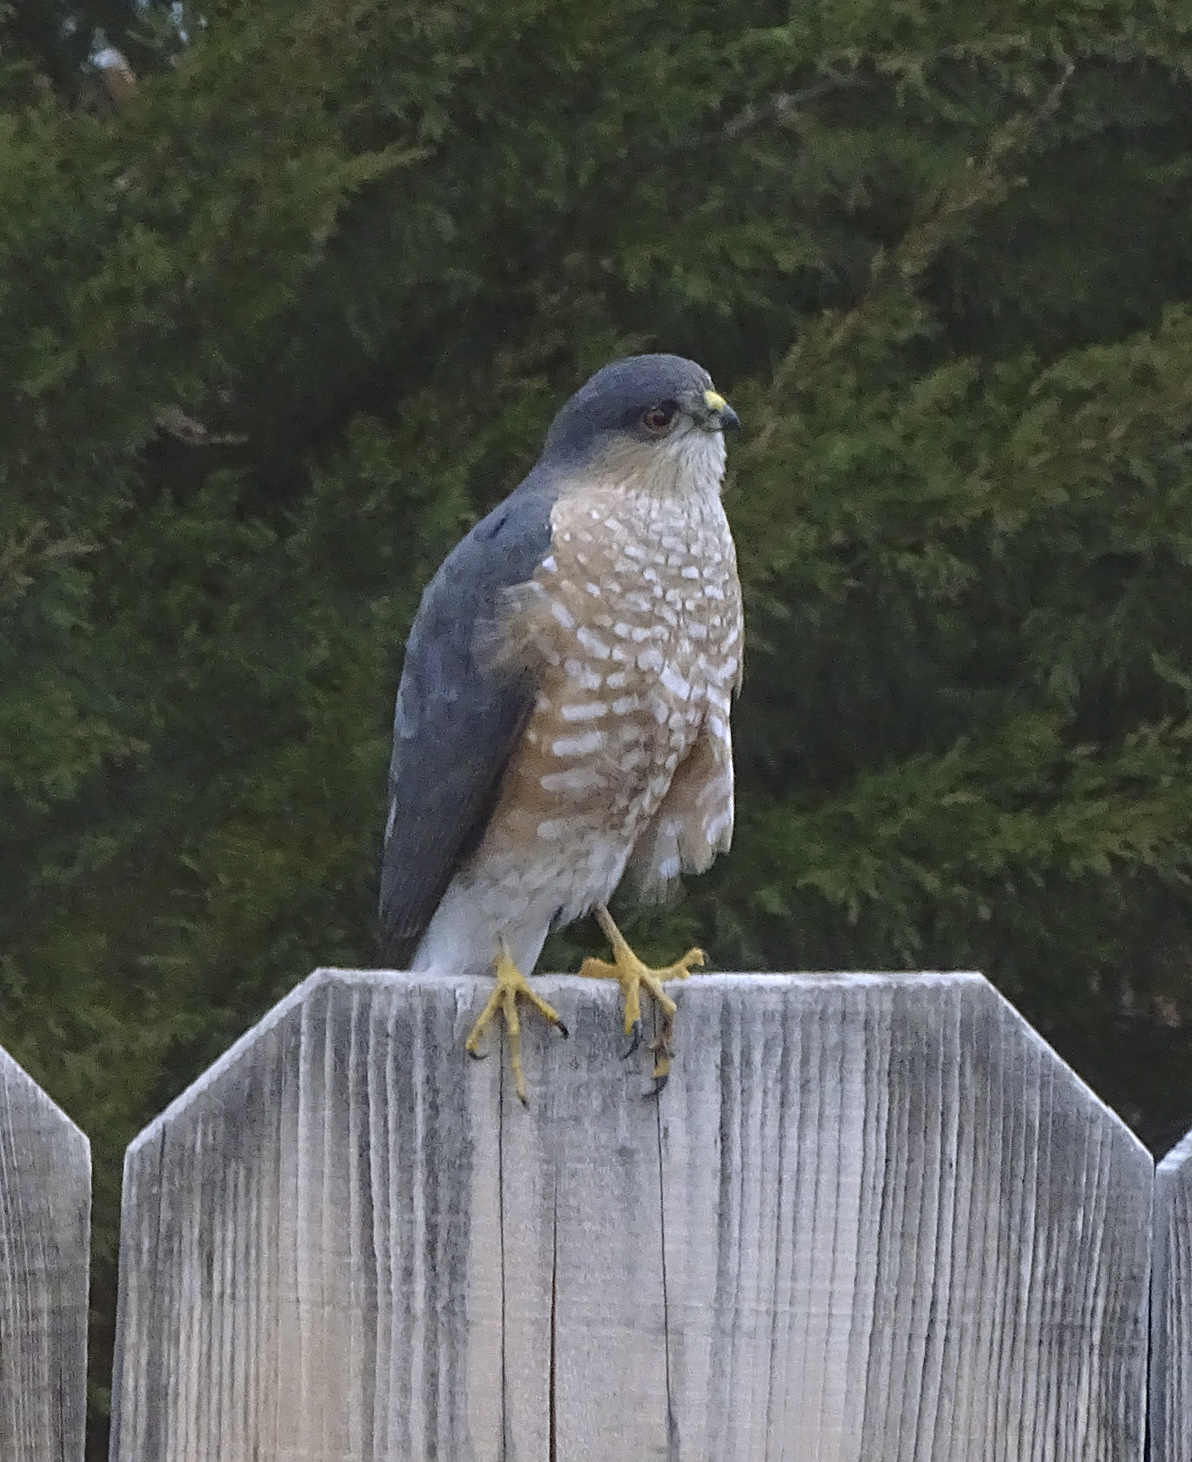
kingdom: Animalia
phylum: Chordata
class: Aves
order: Accipitriformes
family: Accipitridae
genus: Accipiter
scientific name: Accipiter striatus
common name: Sharp-shinned hawk
